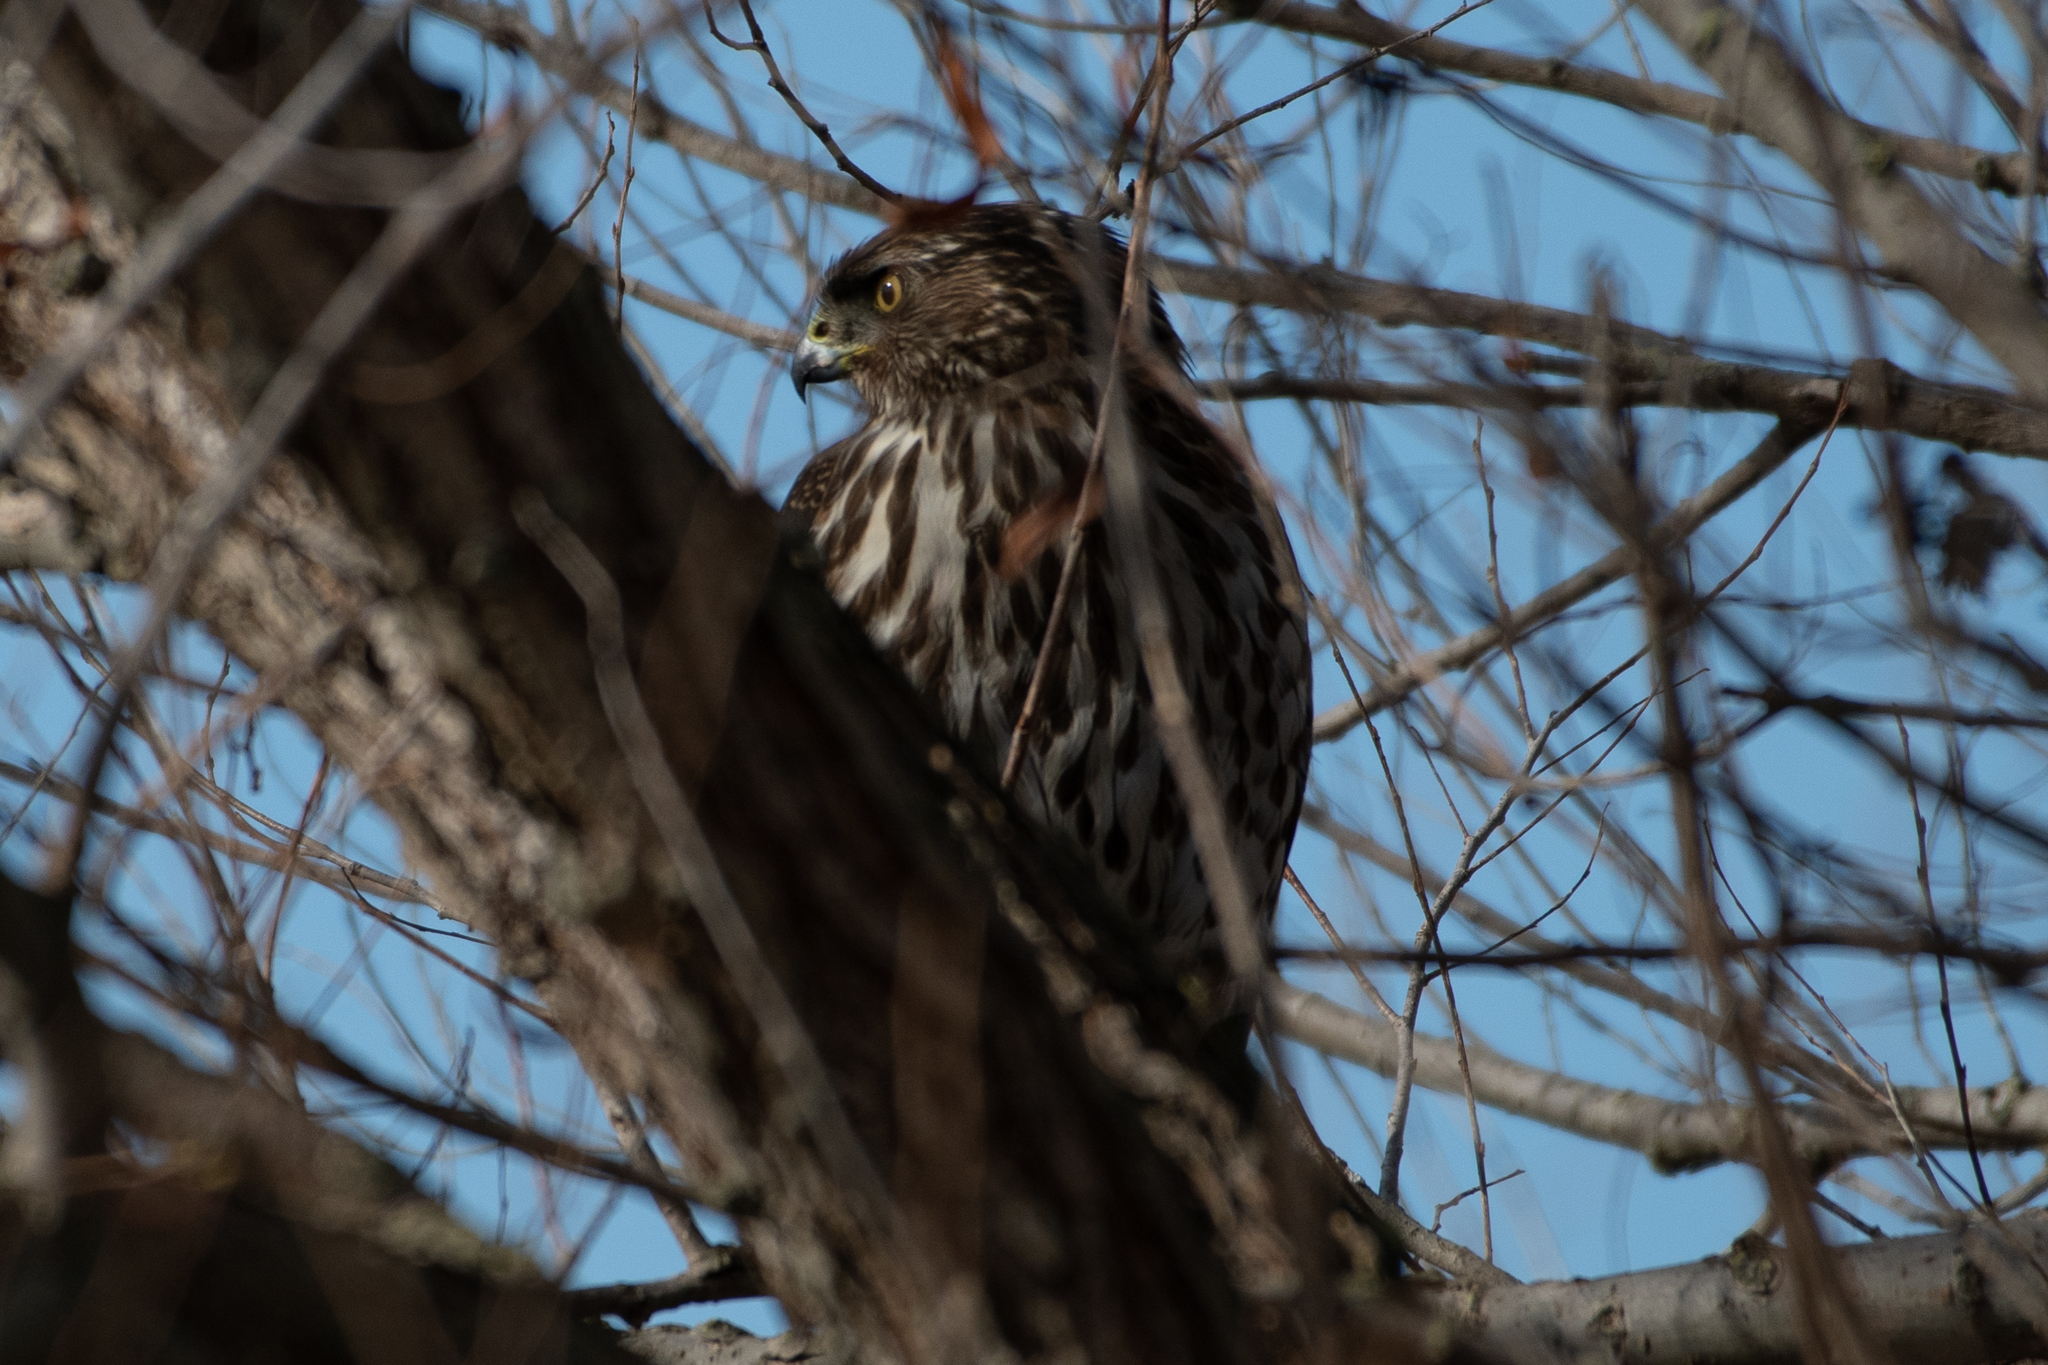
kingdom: Animalia
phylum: Chordata
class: Aves
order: Accipitriformes
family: Accipitridae
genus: Accipiter
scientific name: Accipiter cooperii
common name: Cooper's hawk
